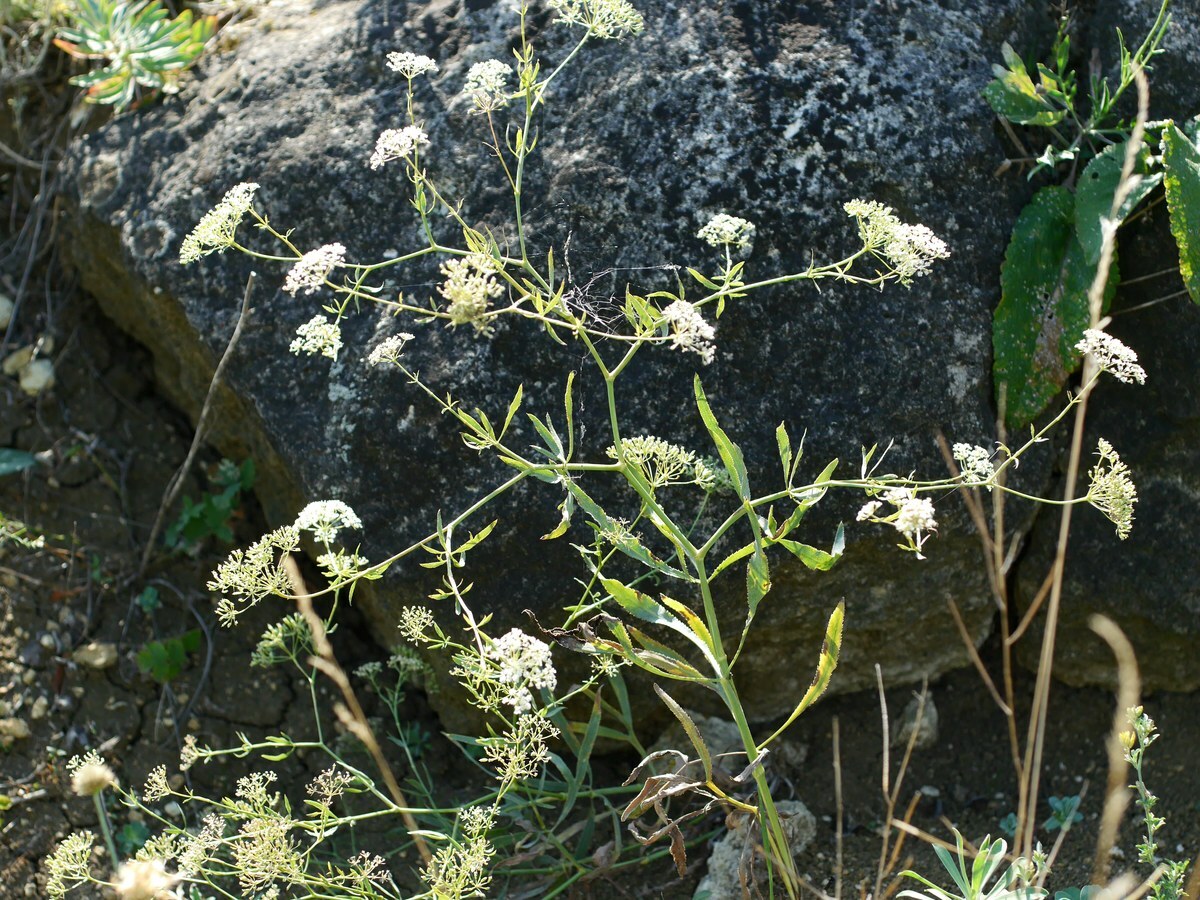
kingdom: Plantae
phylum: Tracheophyta
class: Magnoliopsida
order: Apiales
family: Apiaceae
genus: Falcaria
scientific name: Falcaria vulgaris
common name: Longleaf
